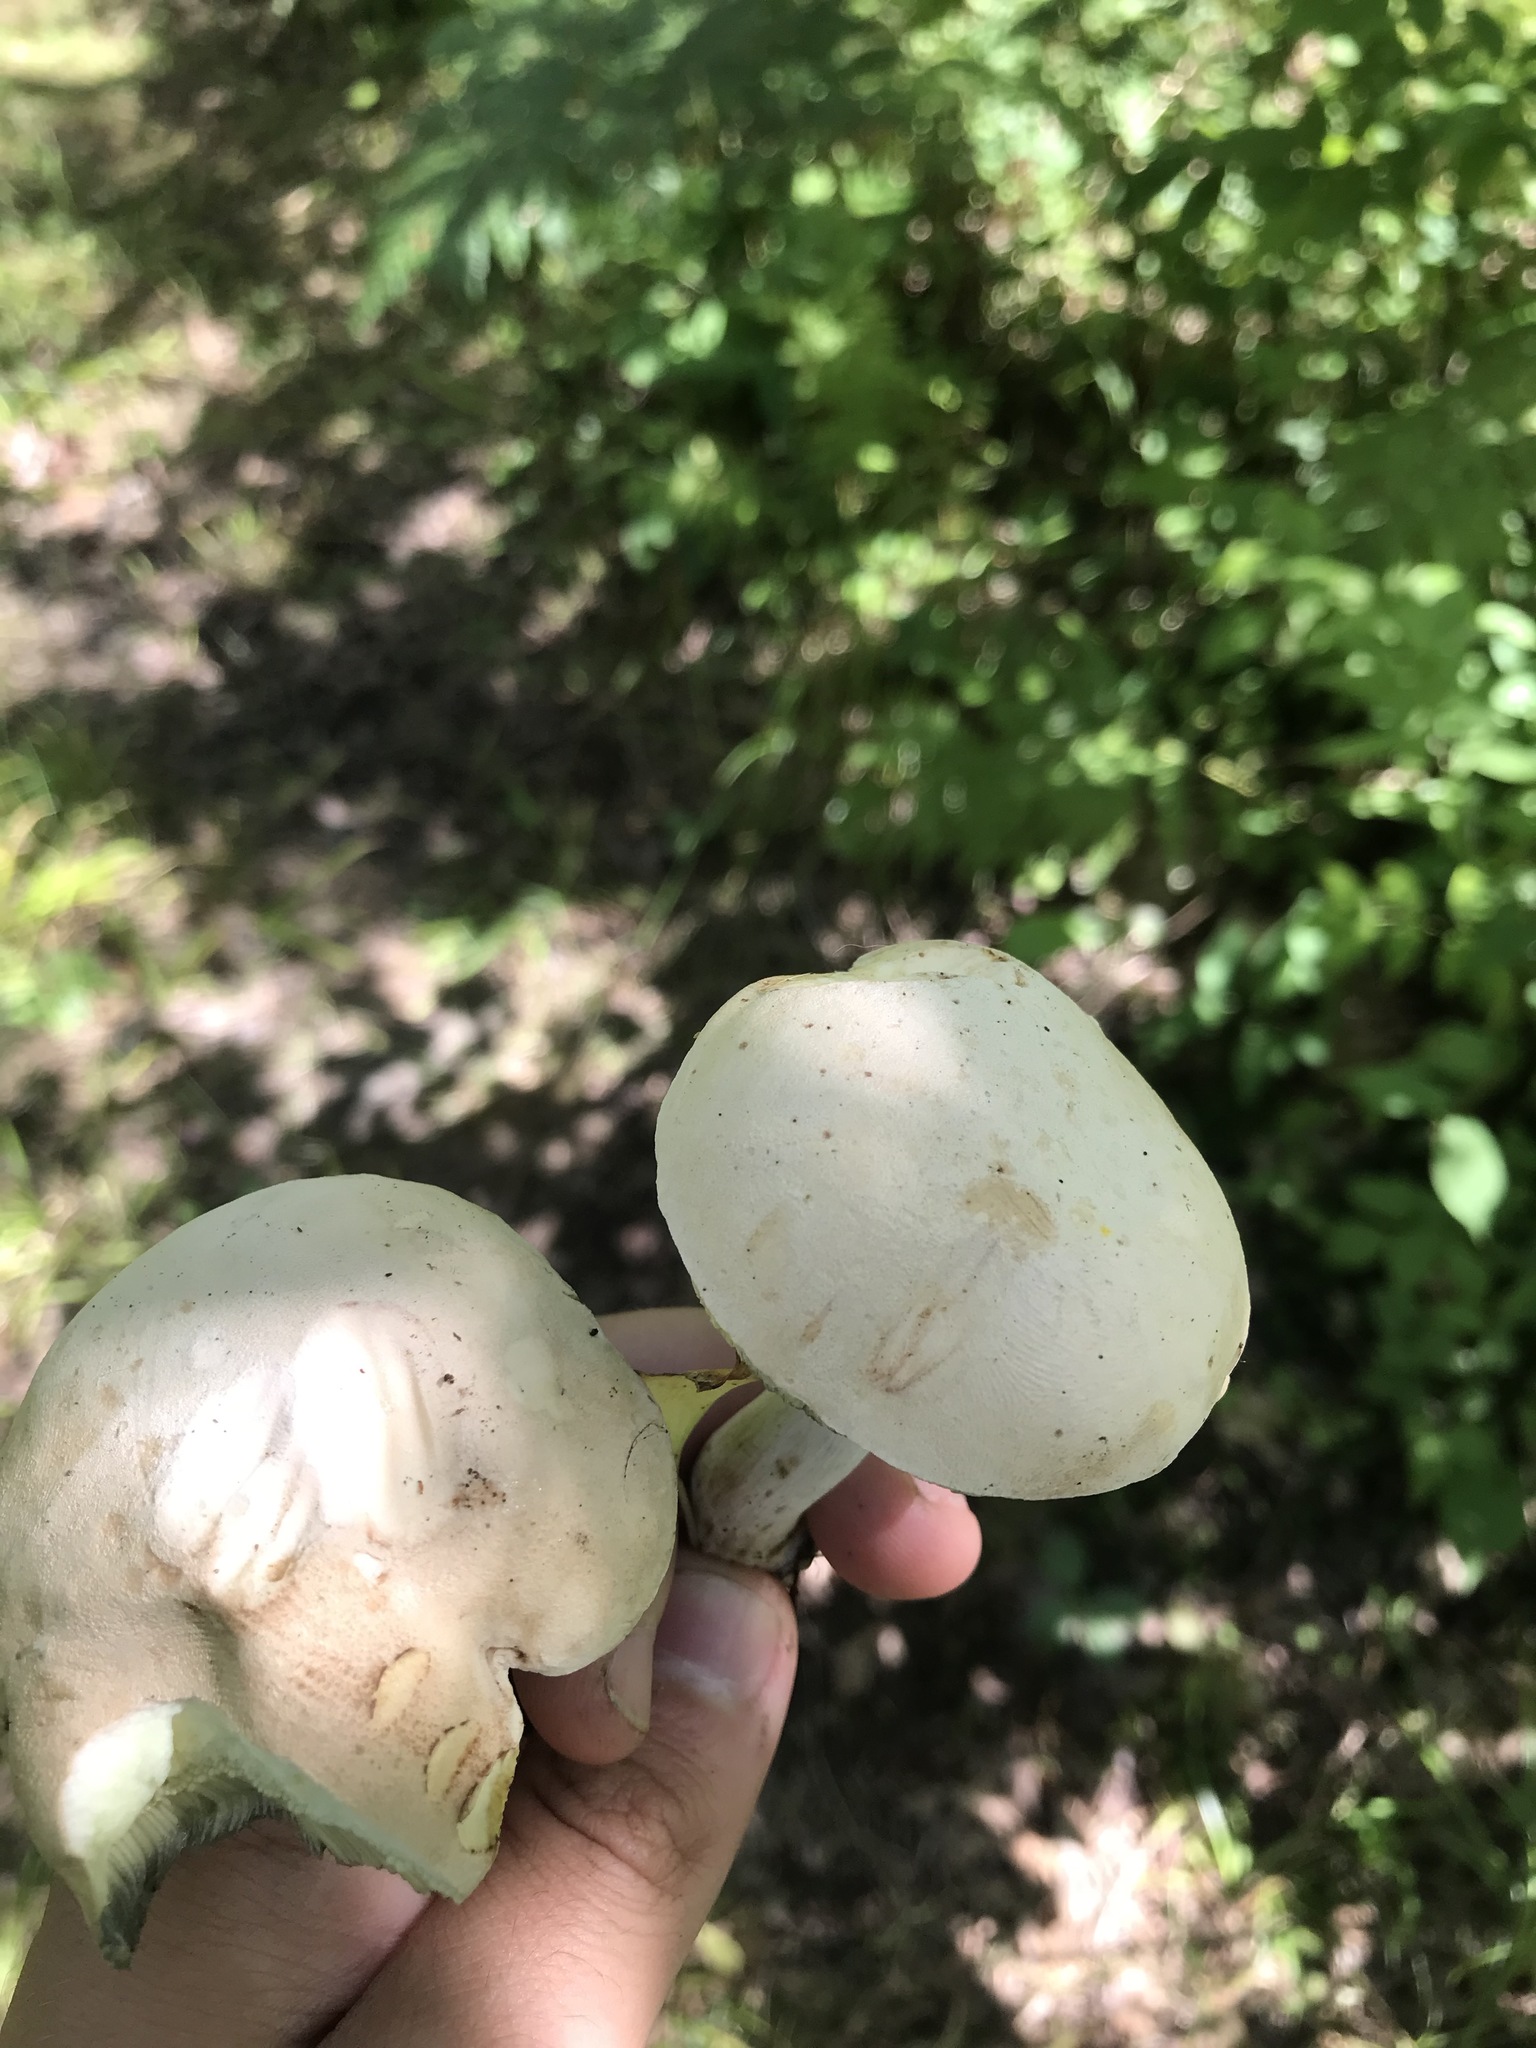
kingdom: Fungi
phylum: Basidiomycota
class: Agaricomycetes
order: Boletales
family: Boletaceae
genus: Imleria
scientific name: Imleria pallida
